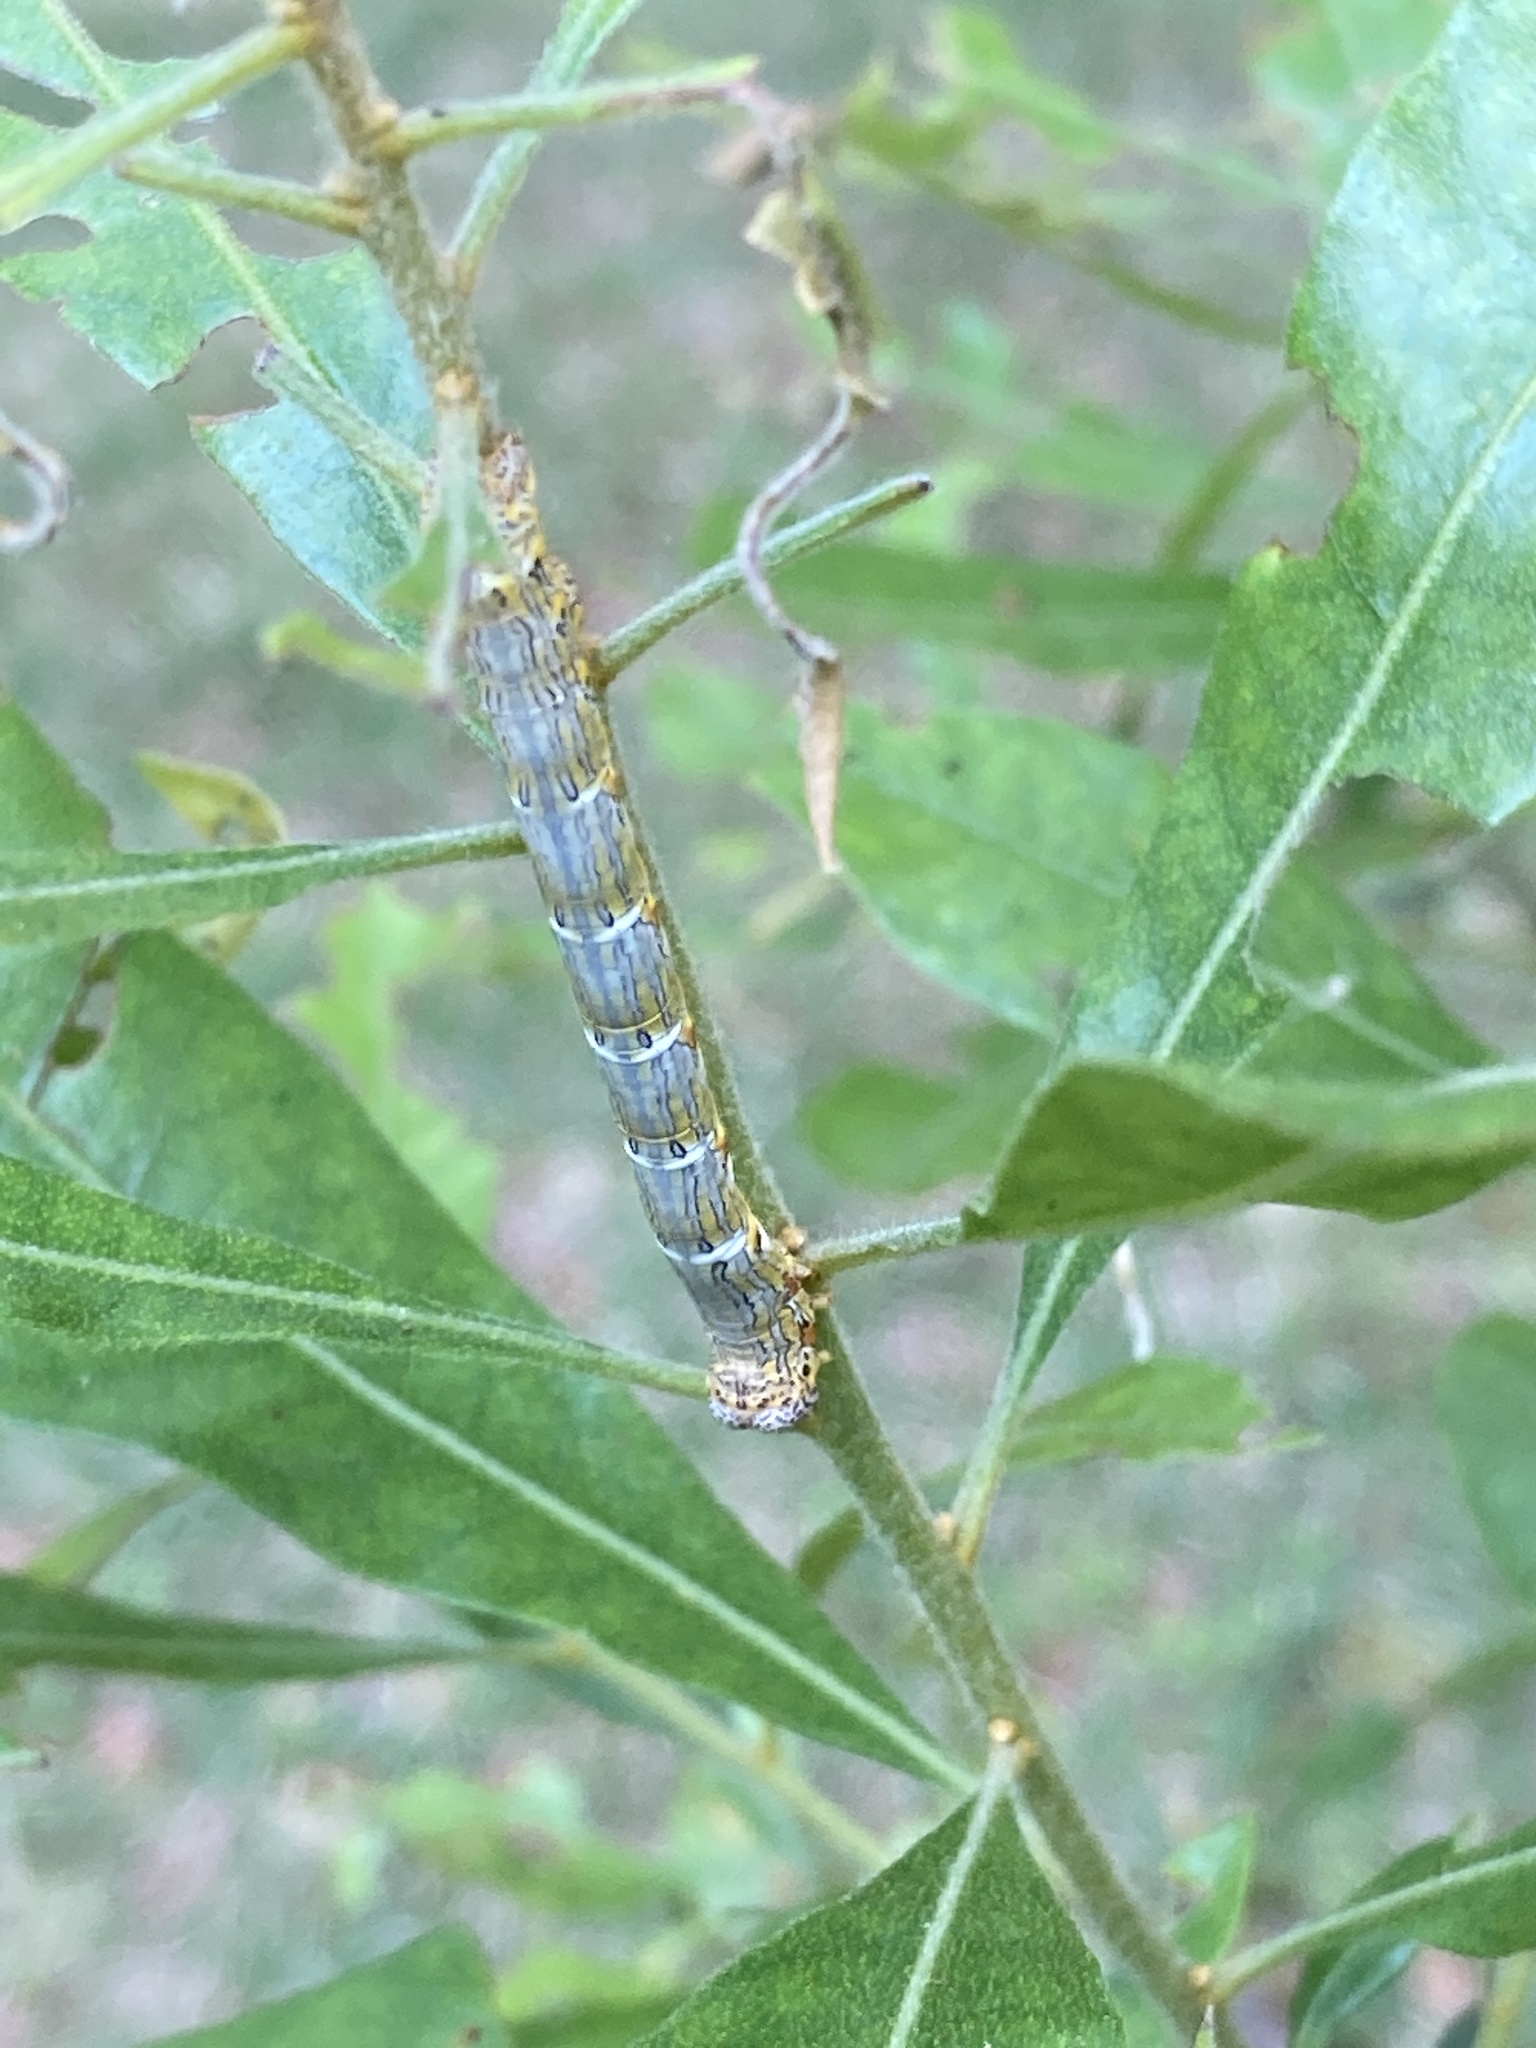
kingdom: Animalia
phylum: Arthropoda
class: Insecta
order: Lepidoptera
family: Geometridae
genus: Lycia
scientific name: Lycia ypsilon
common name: Wooly gray
